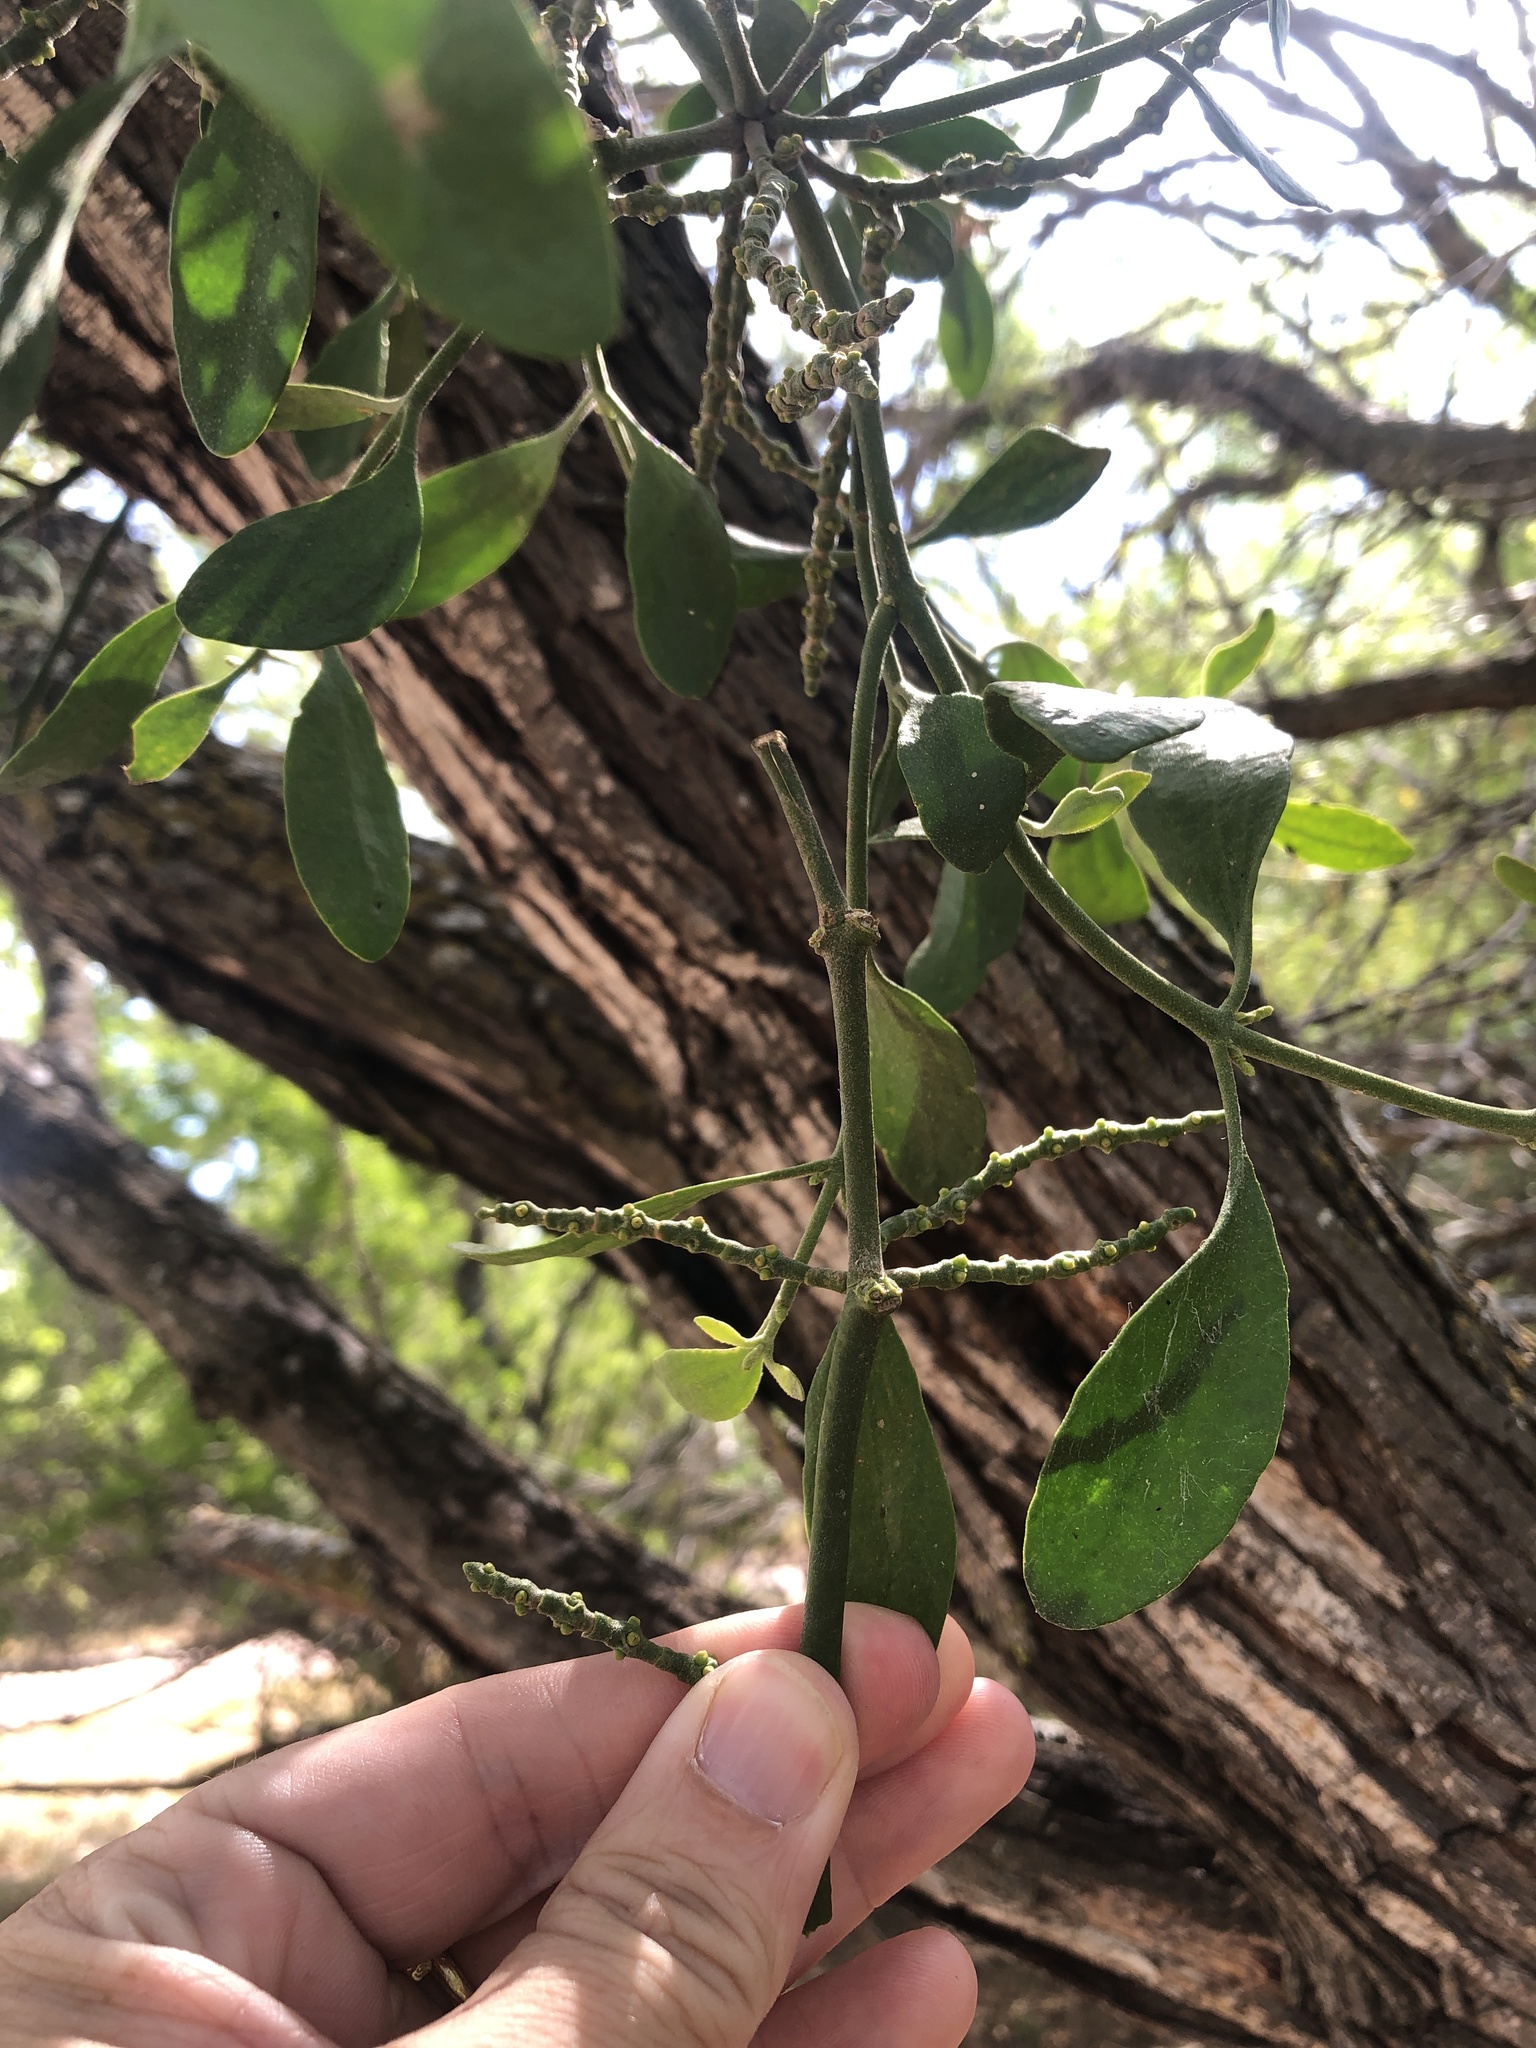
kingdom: Plantae
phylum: Tracheophyta
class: Magnoliopsida
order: Santalales
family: Viscaceae
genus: Phoradendron
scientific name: Phoradendron leucarpum
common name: Pacific mistletoe
